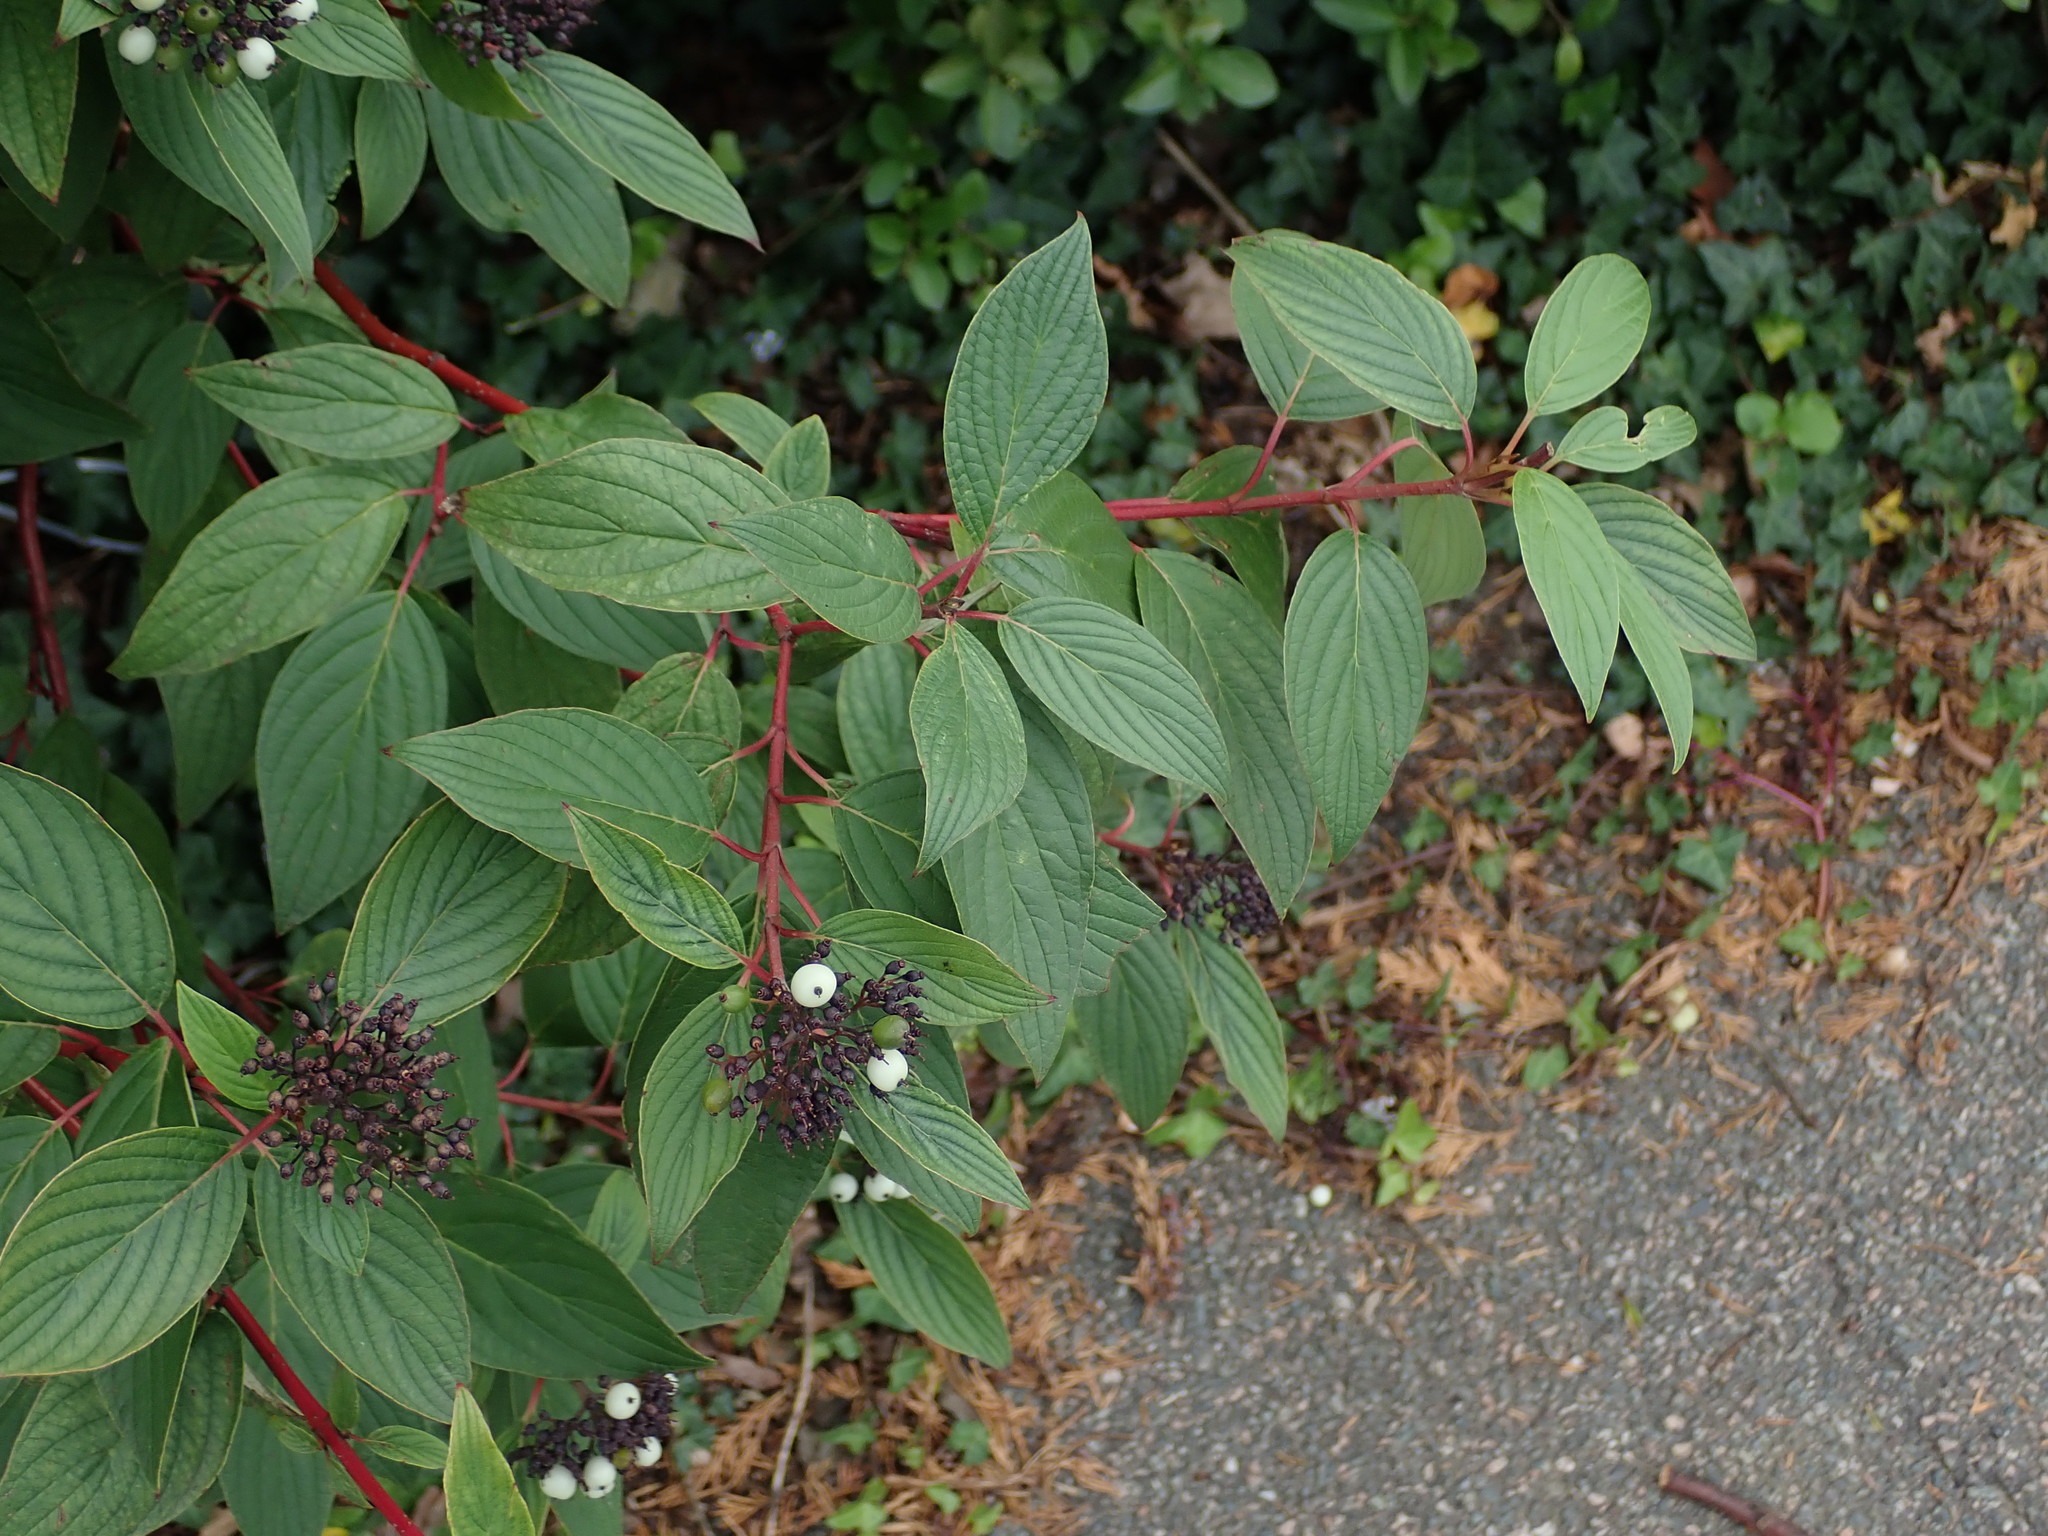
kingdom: Plantae
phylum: Tracheophyta
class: Magnoliopsida
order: Cornales
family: Cornaceae
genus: Cornus
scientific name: Cornus sericea
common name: Red-osier dogwood
